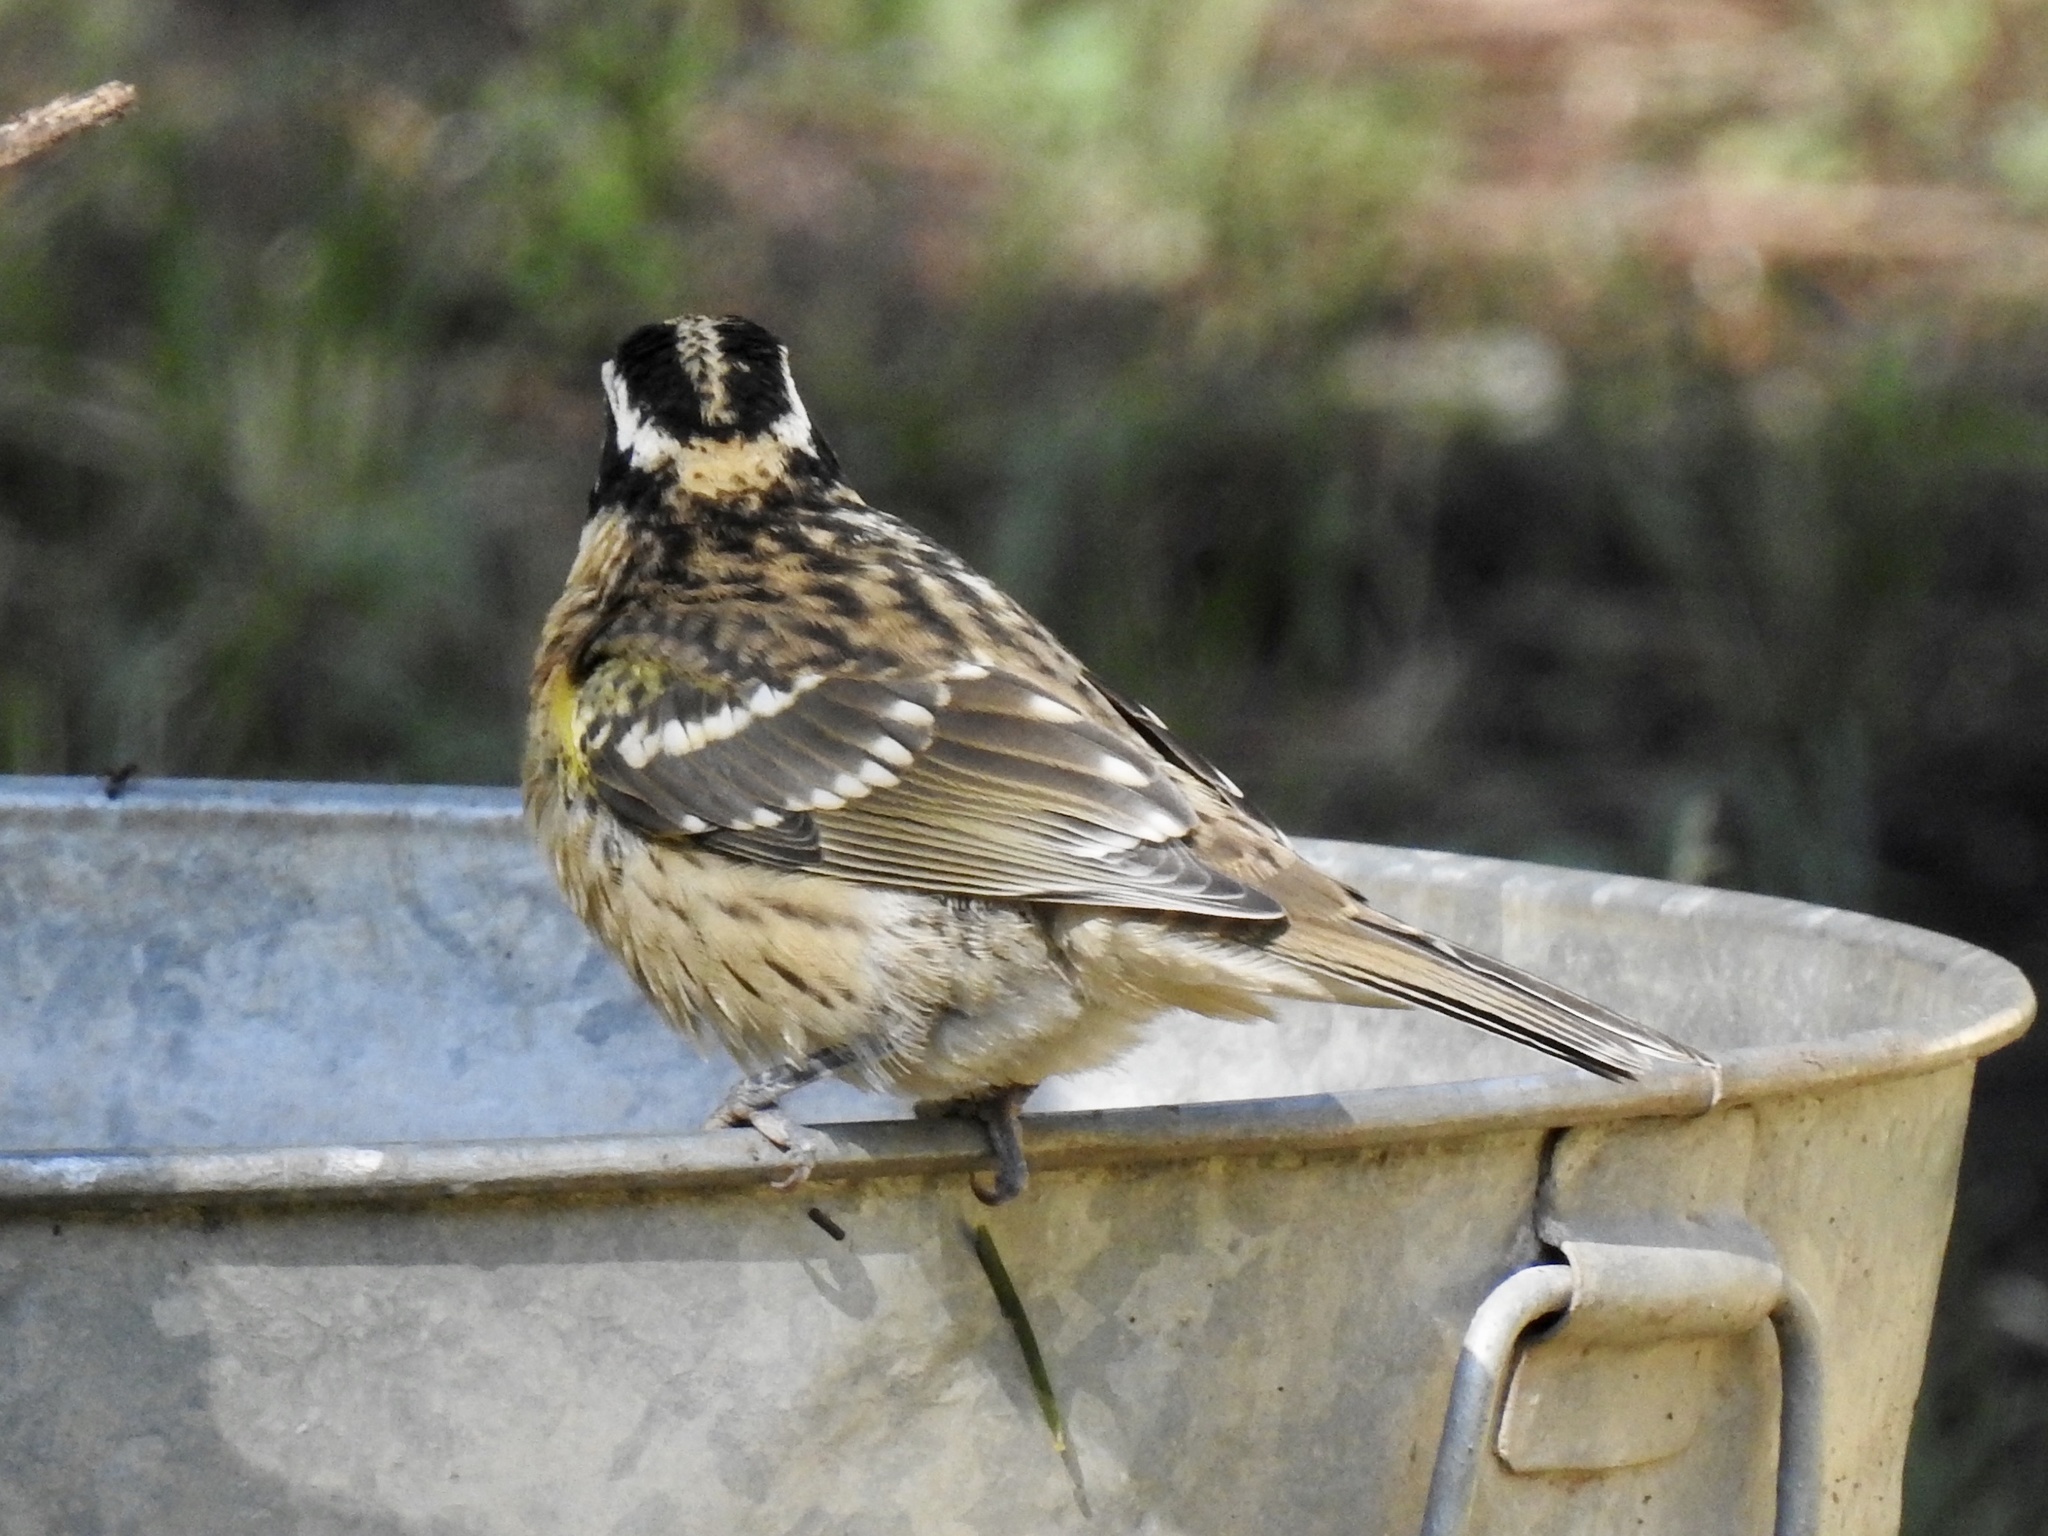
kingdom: Animalia
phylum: Chordata
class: Aves
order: Passeriformes
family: Cardinalidae
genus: Pheucticus
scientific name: Pheucticus melanocephalus
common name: Black-headed grosbeak
